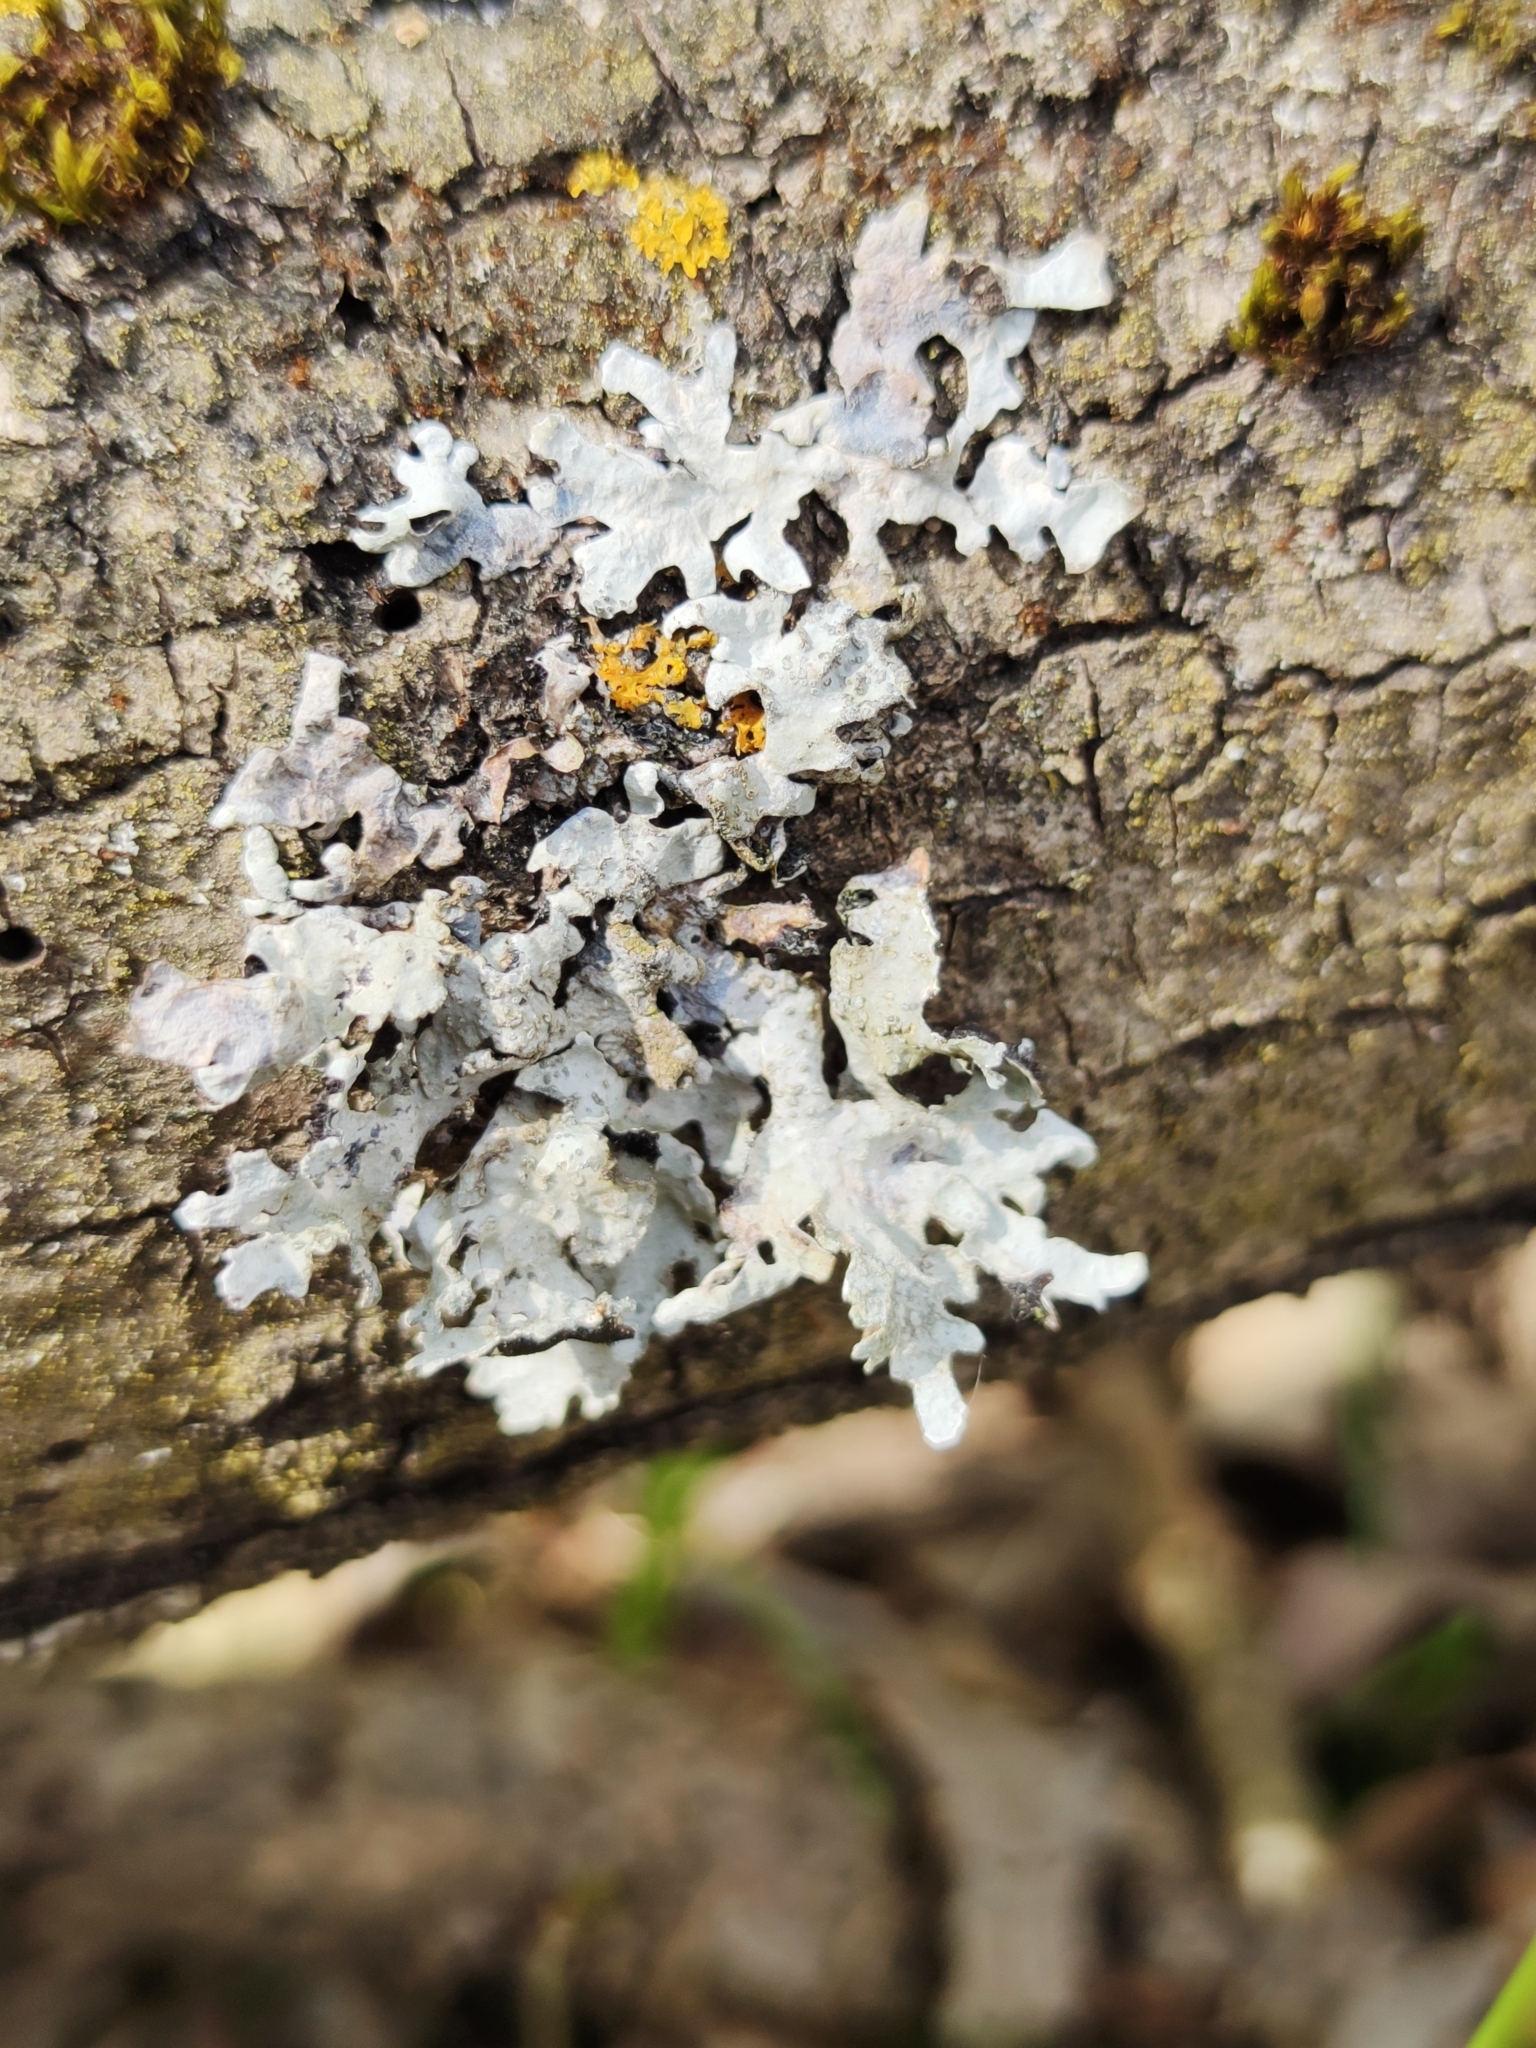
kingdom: Fungi
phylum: Ascomycota
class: Lecanoromycetes
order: Lecanorales
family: Parmeliaceae
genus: Parmelia
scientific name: Parmelia sulcata
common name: Netted shield lichen
